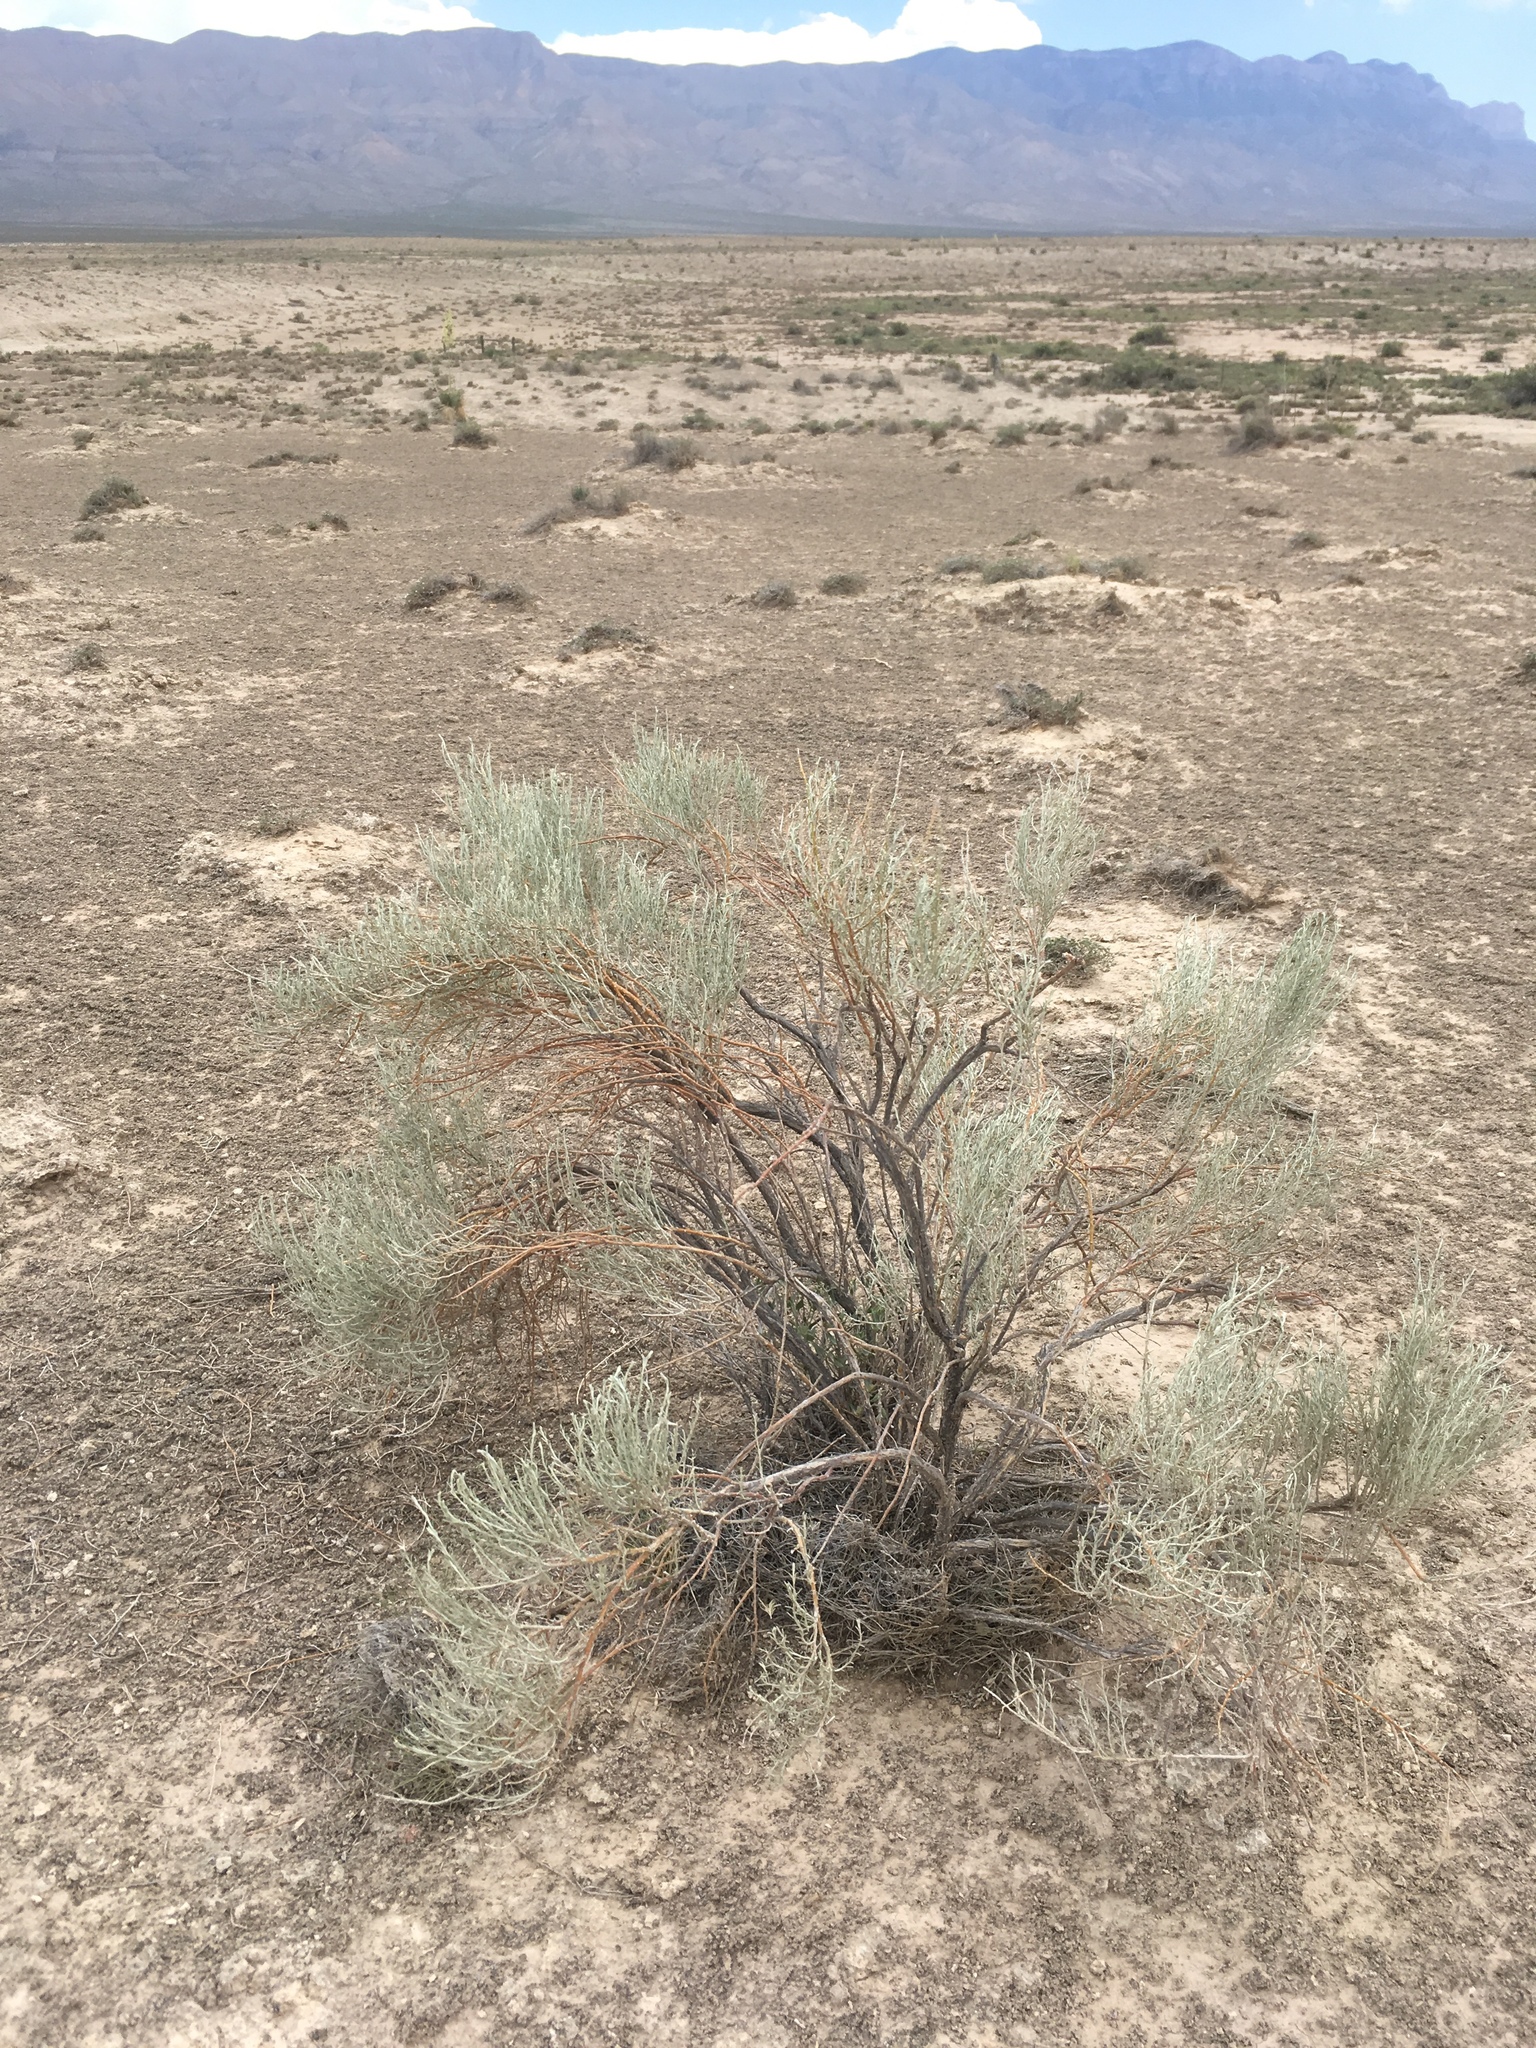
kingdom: Plantae
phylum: Tracheophyta
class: Magnoliopsida
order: Asterales
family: Asteraceae
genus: Lepidospartum
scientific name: Lepidospartum burgessii
